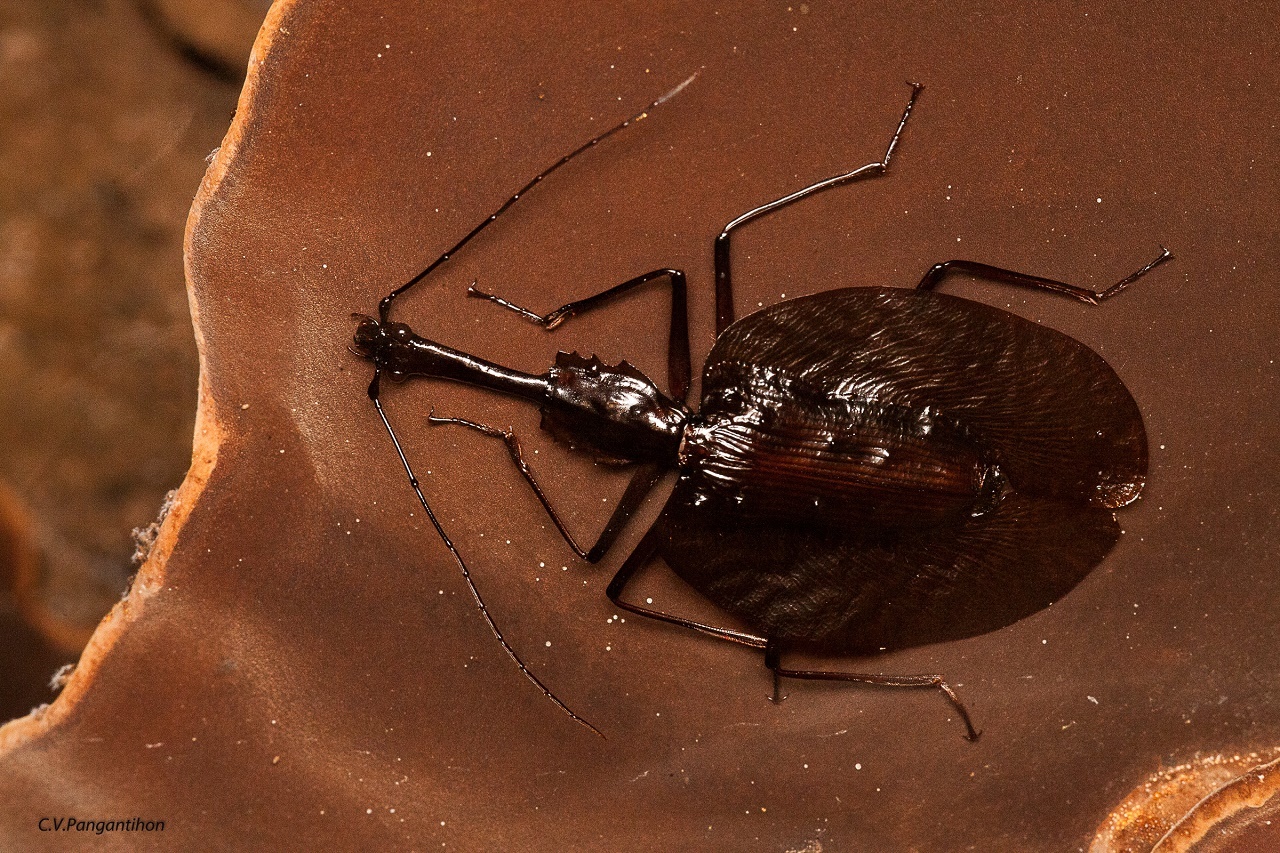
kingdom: Animalia
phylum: Arthropoda
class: Insecta
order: Coleoptera
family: Carabidae
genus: Mormolyce
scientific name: Mormolyce quadraticollis
